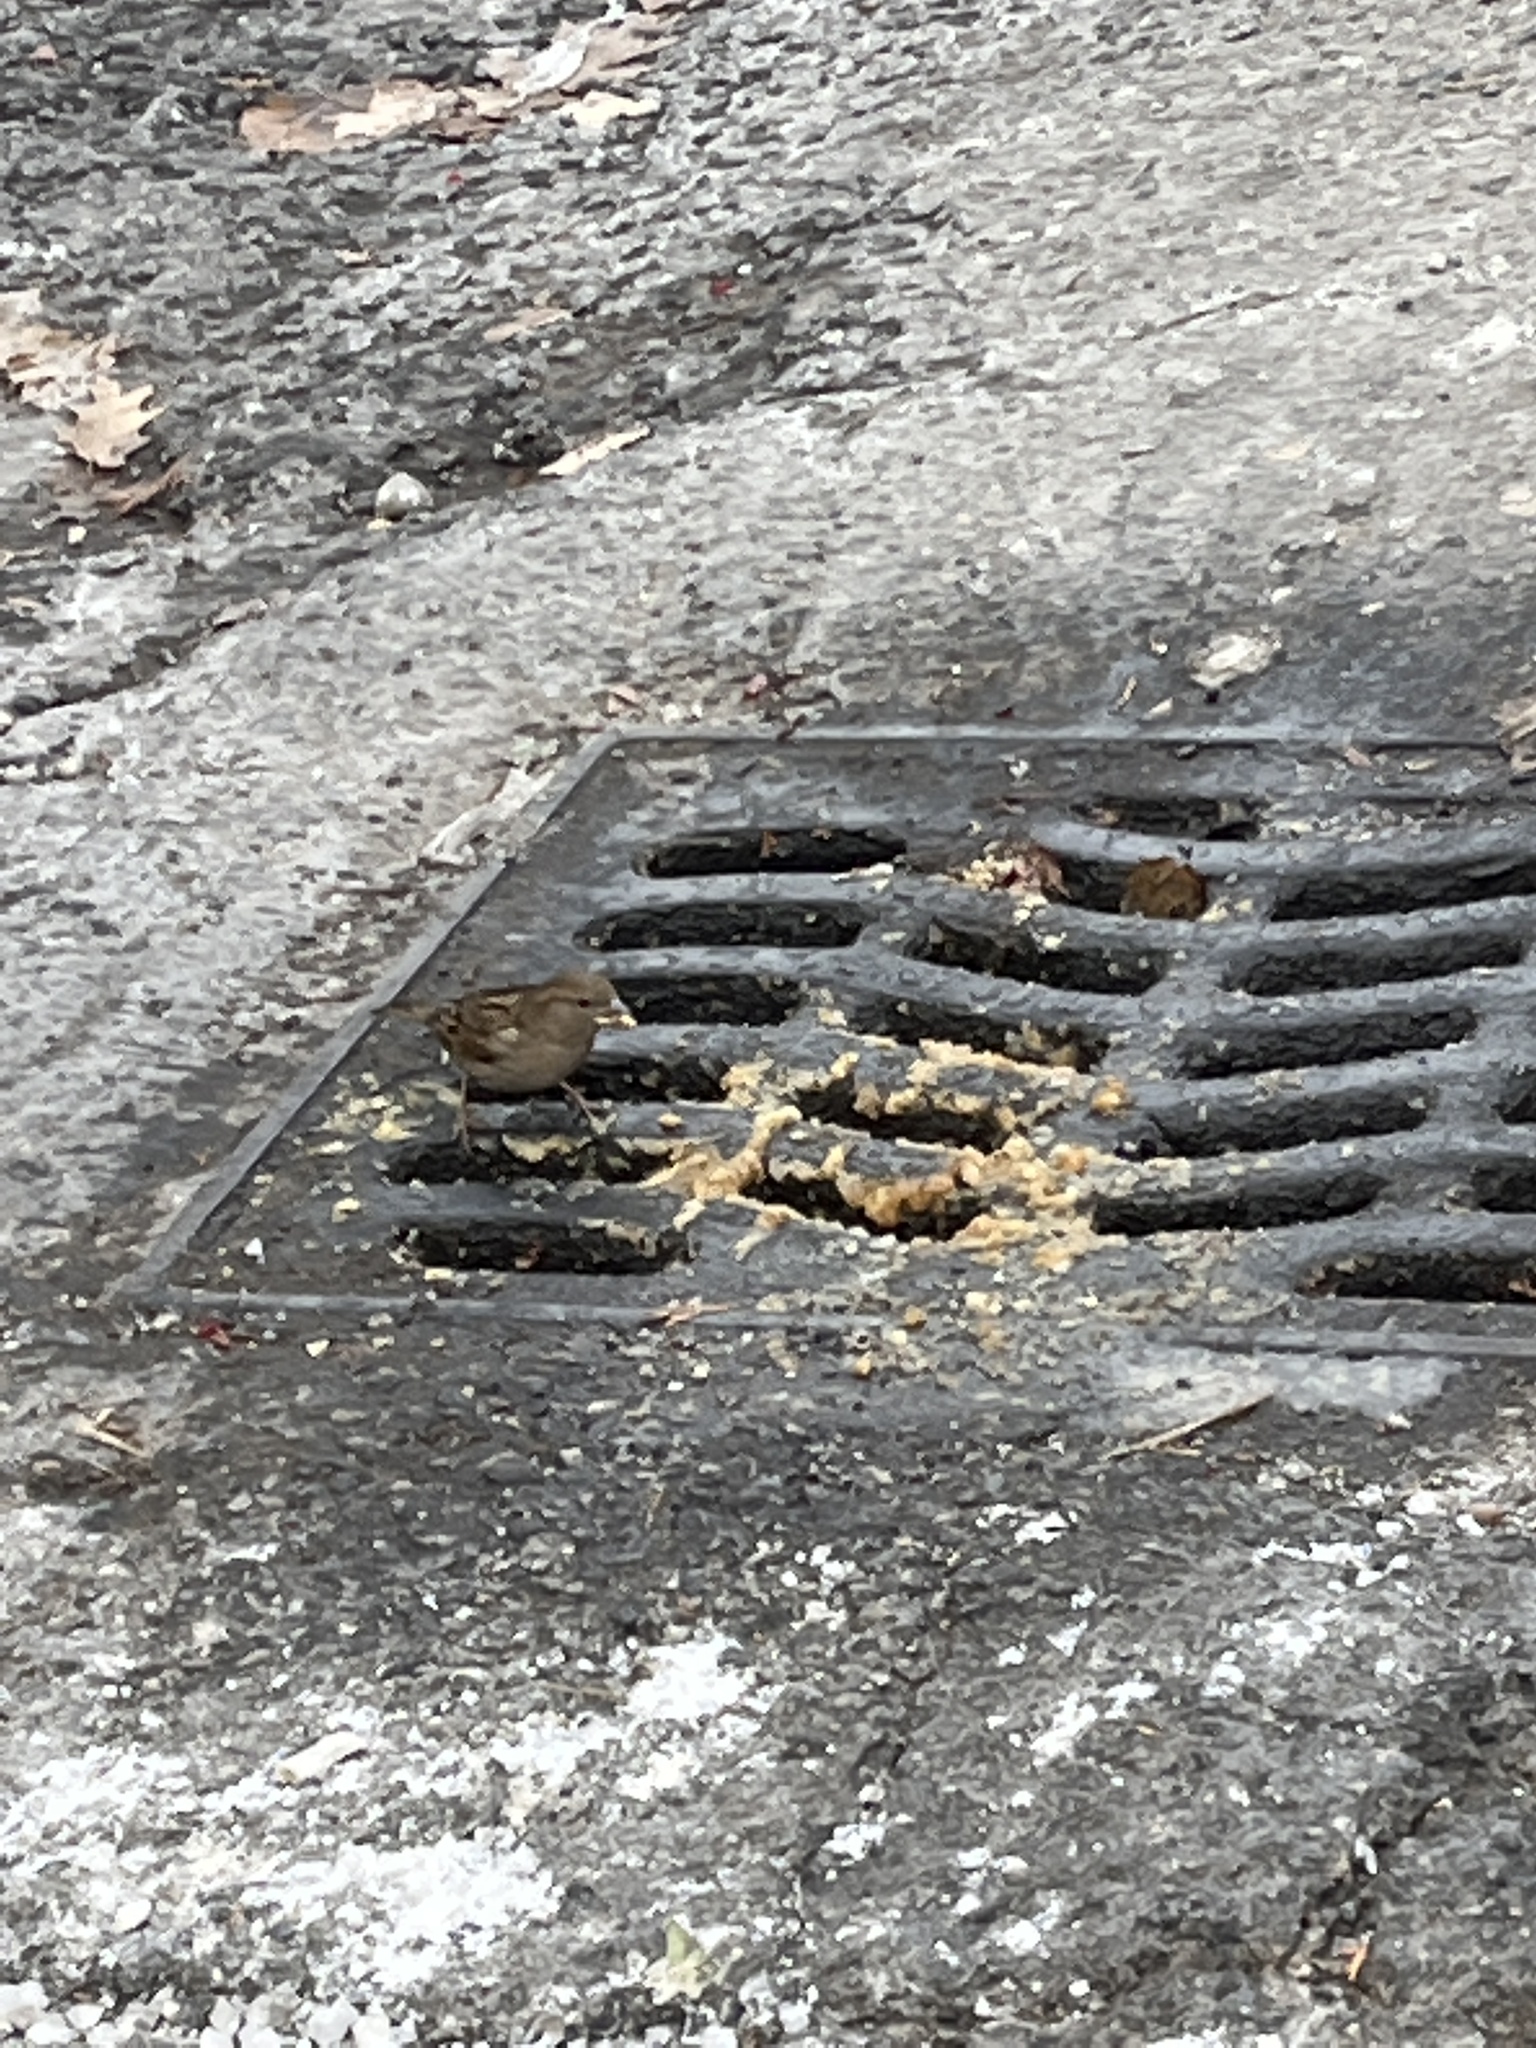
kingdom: Animalia
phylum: Chordata
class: Aves
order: Passeriformes
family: Passeridae
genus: Passer
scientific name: Passer domesticus
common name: House sparrow
